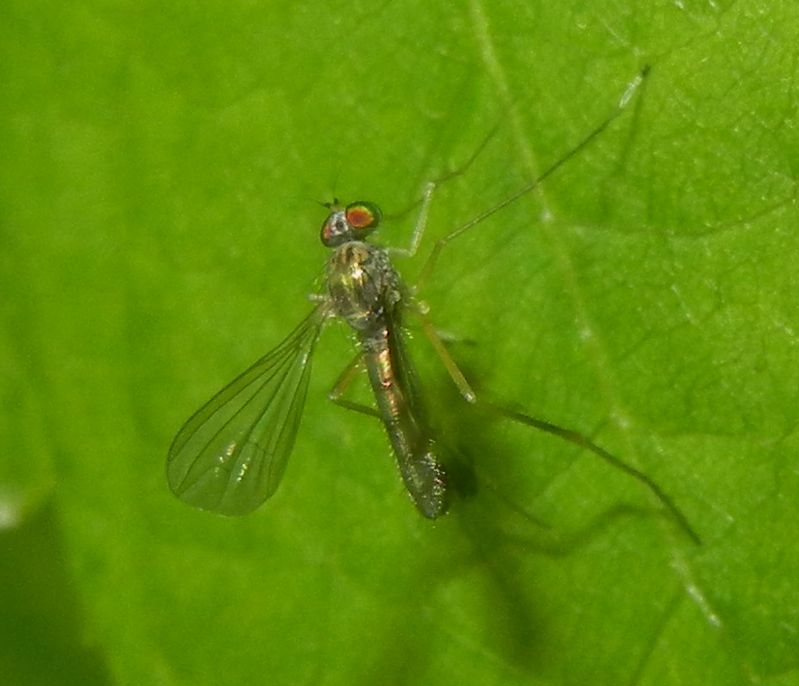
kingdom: Animalia
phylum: Arthropoda
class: Insecta
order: Diptera
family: Dolichopodidae
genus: Sciapus
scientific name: Sciapus platypterus
